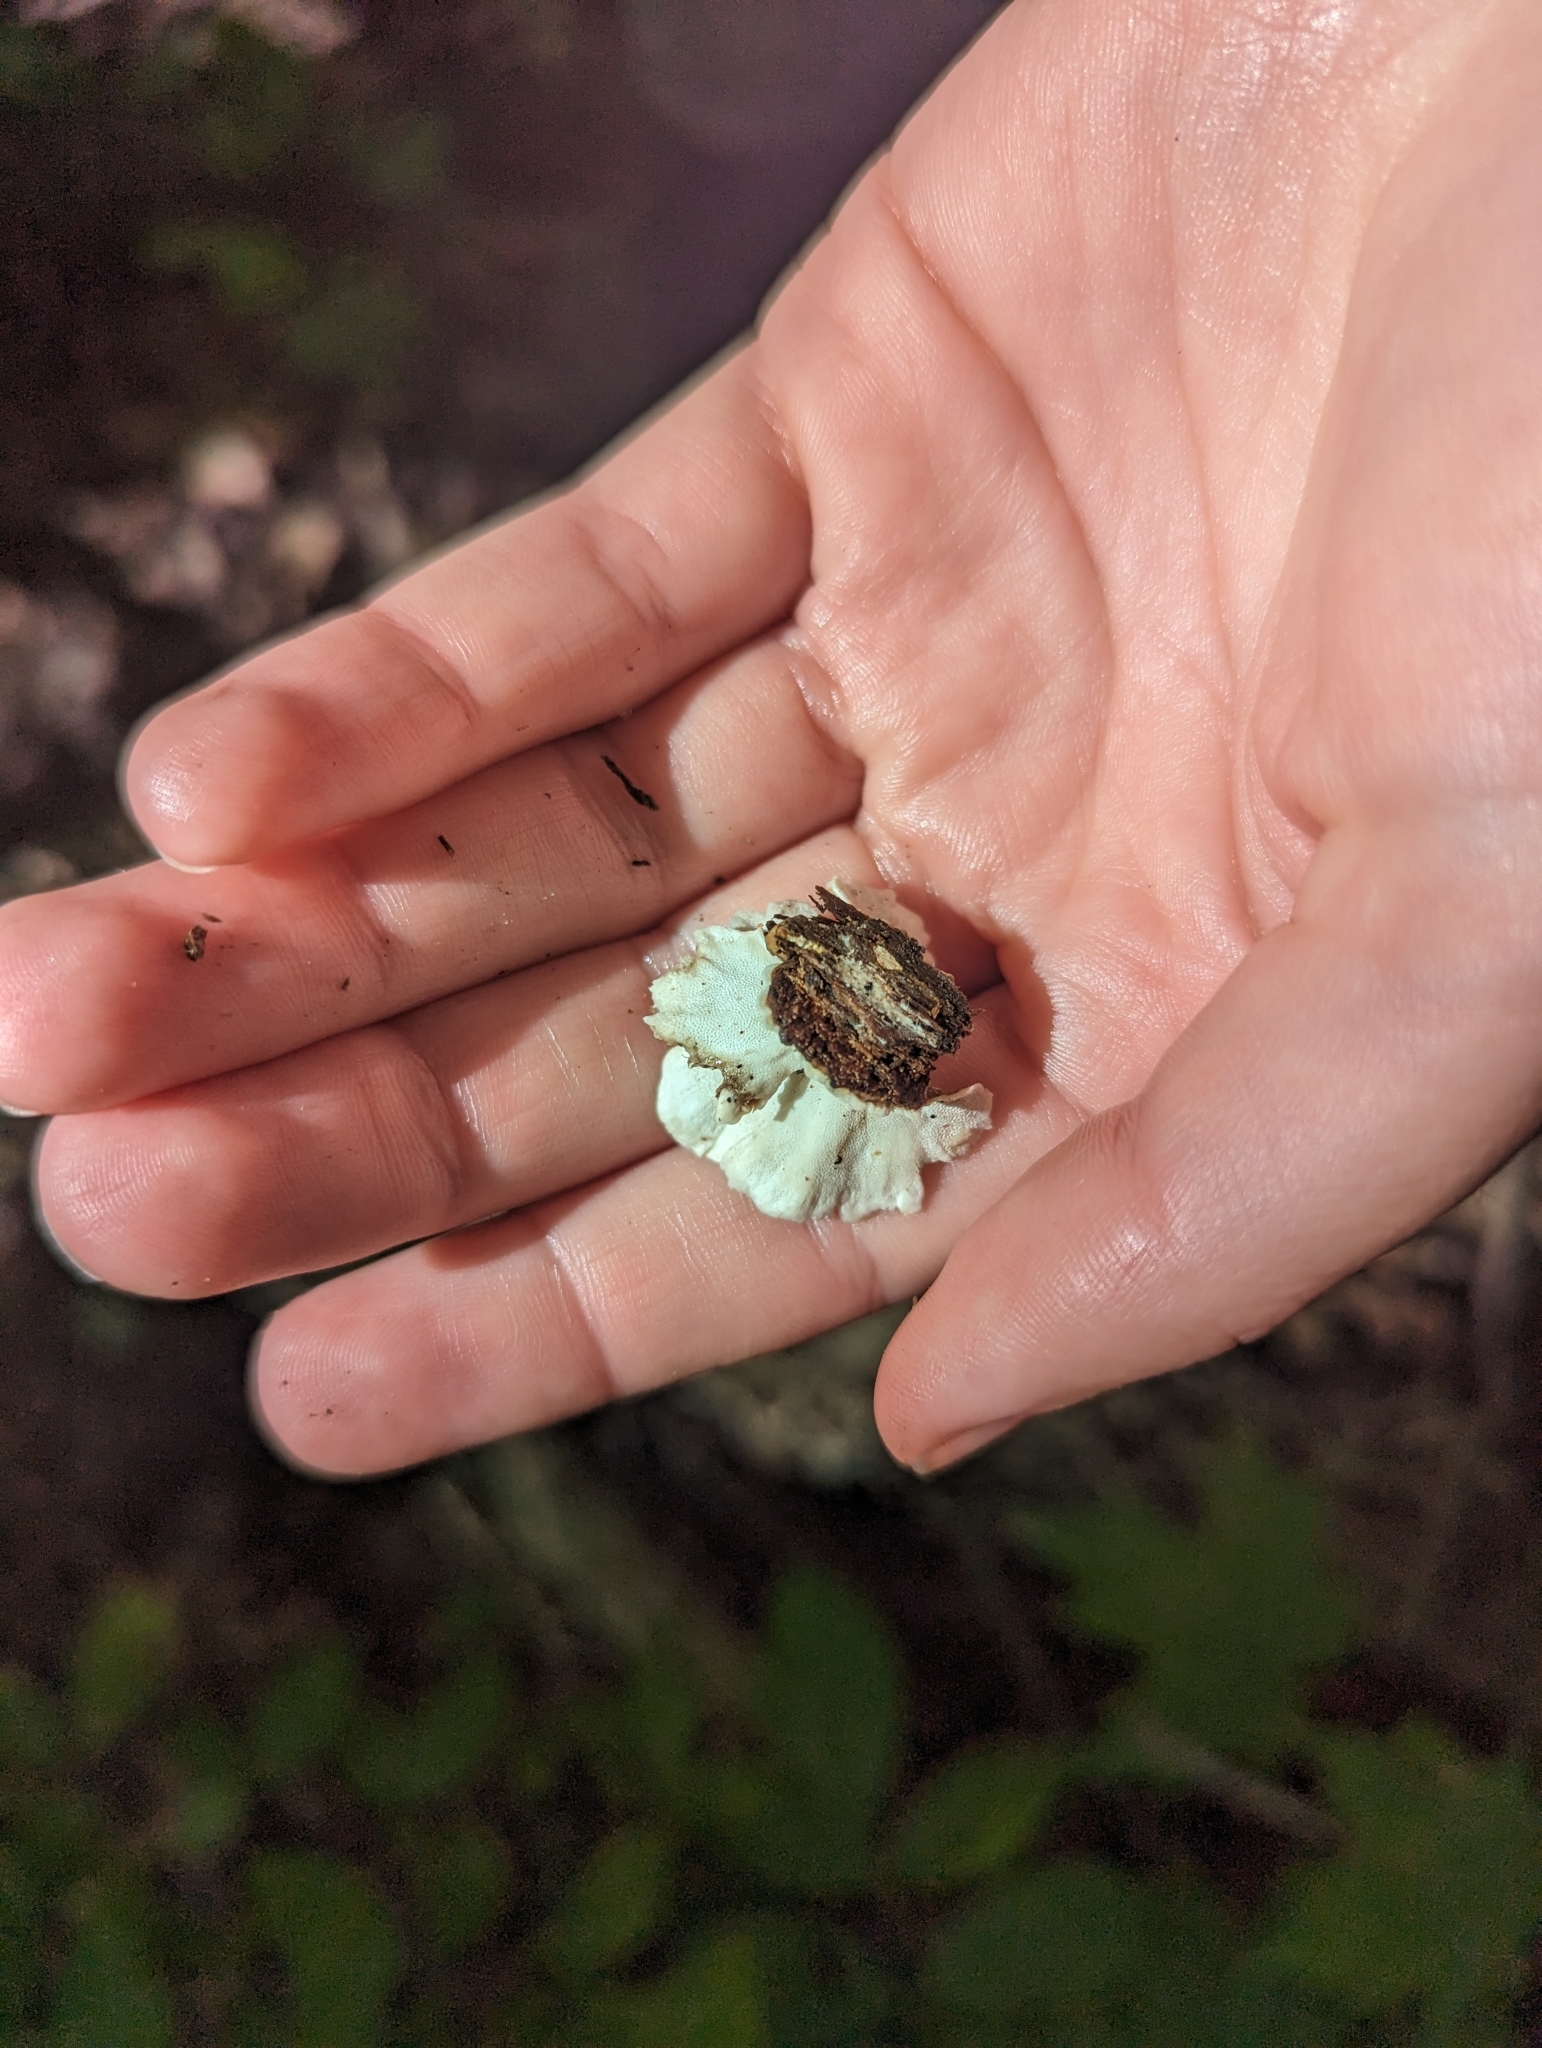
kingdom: Fungi
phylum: Basidiomycota
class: Agaricomycetes
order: Polyporales
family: Polyporaceae
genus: Trametes
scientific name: Trametes versicolor
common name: Turkeytail
